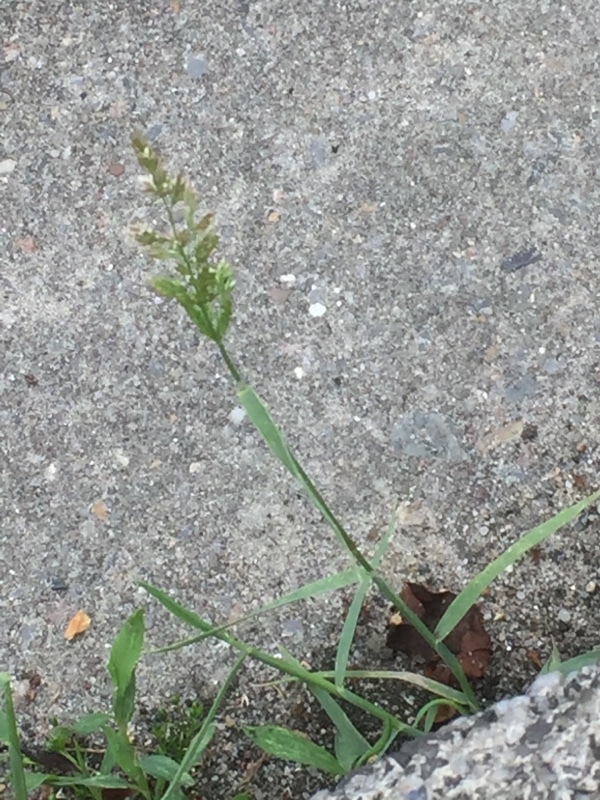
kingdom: Plantae
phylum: Tracheophyta
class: Liliopsida
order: Poales
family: Poaceae
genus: Polypogon
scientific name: Polypogon viridis
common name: Water bent
